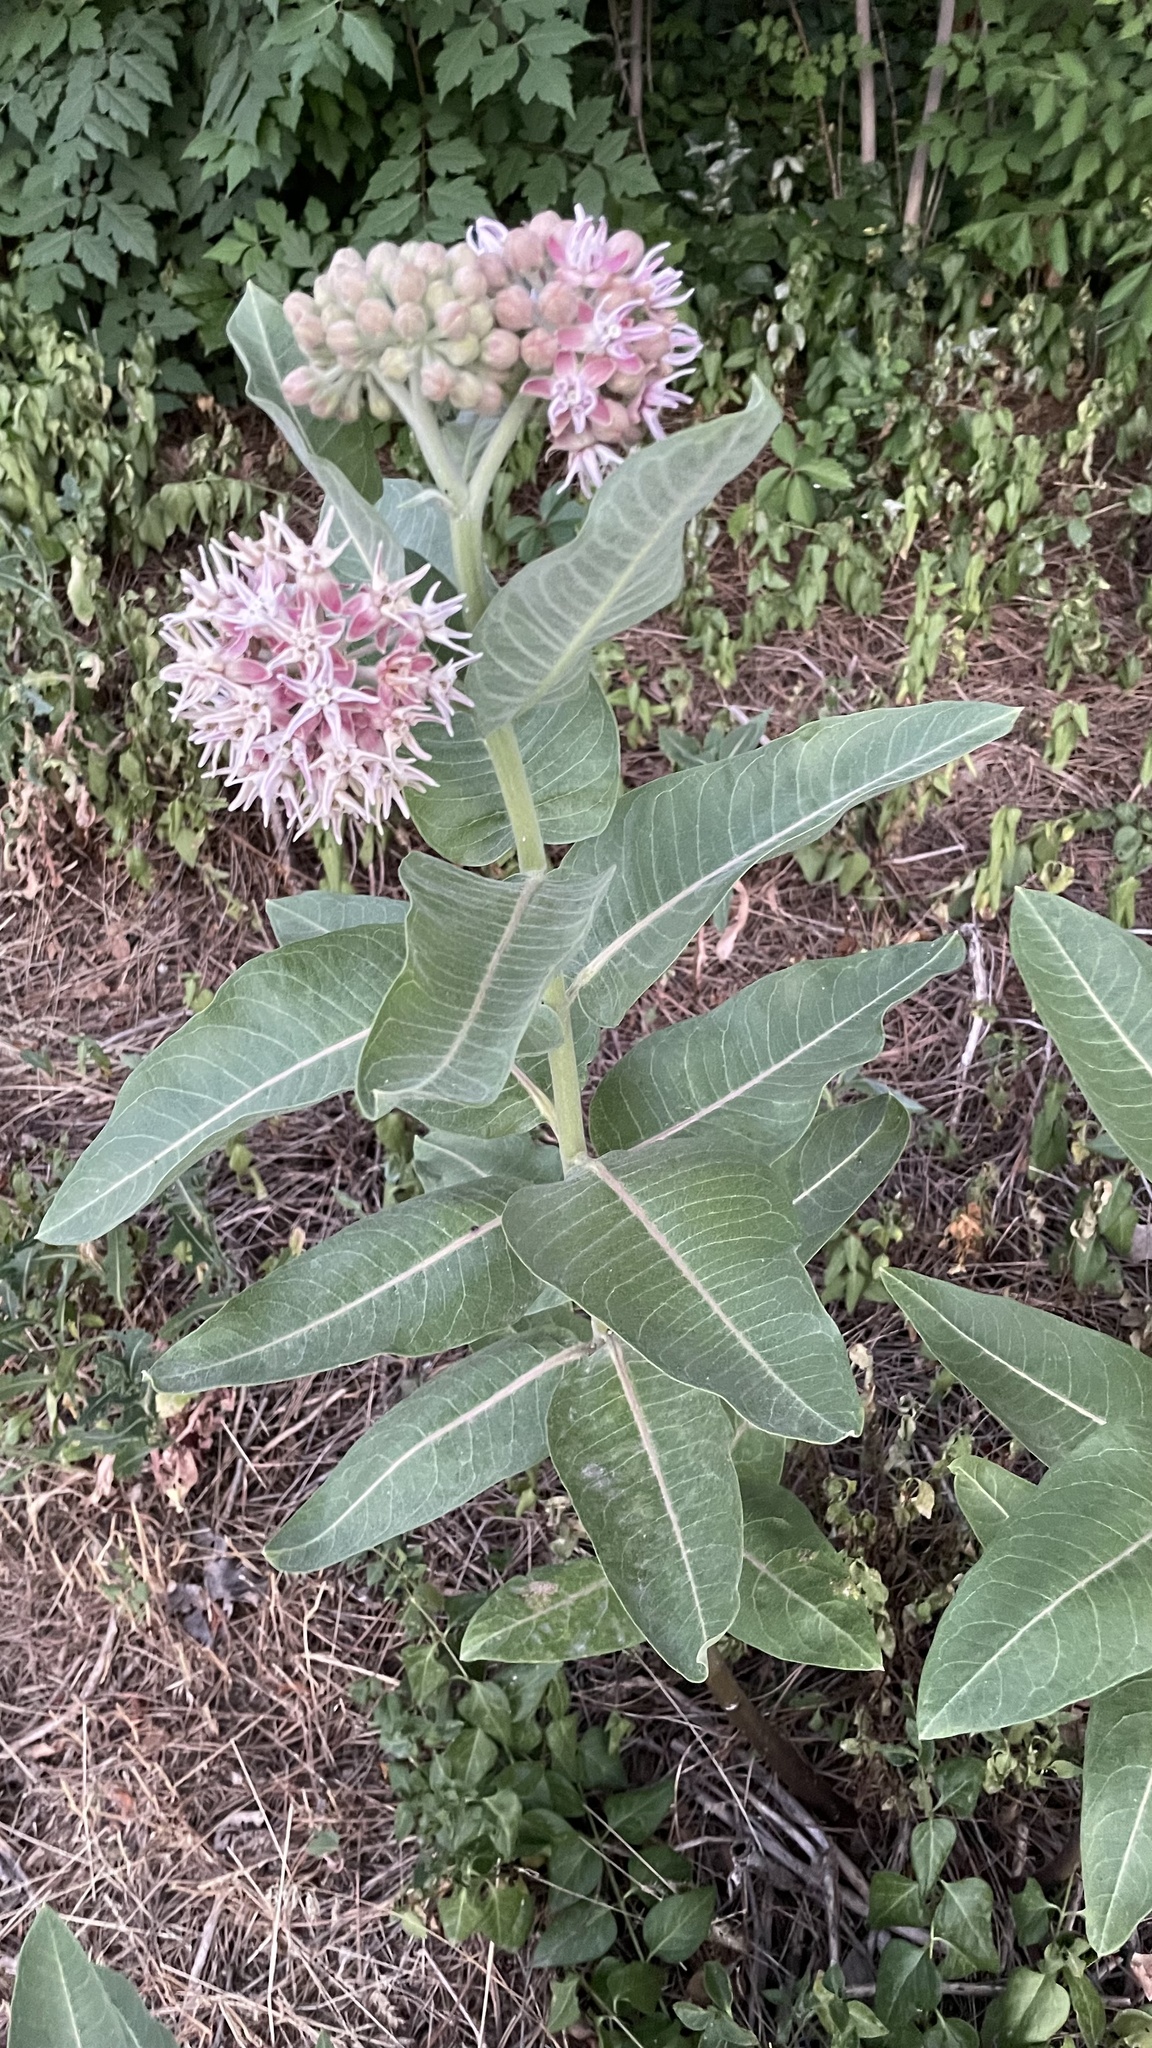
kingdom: Plantae
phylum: Tracheophyta
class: Magnoliopsida
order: Gentianales
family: Apocynaceae
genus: Asclepias
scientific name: Asclepias speciosa
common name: Showy milkweed
